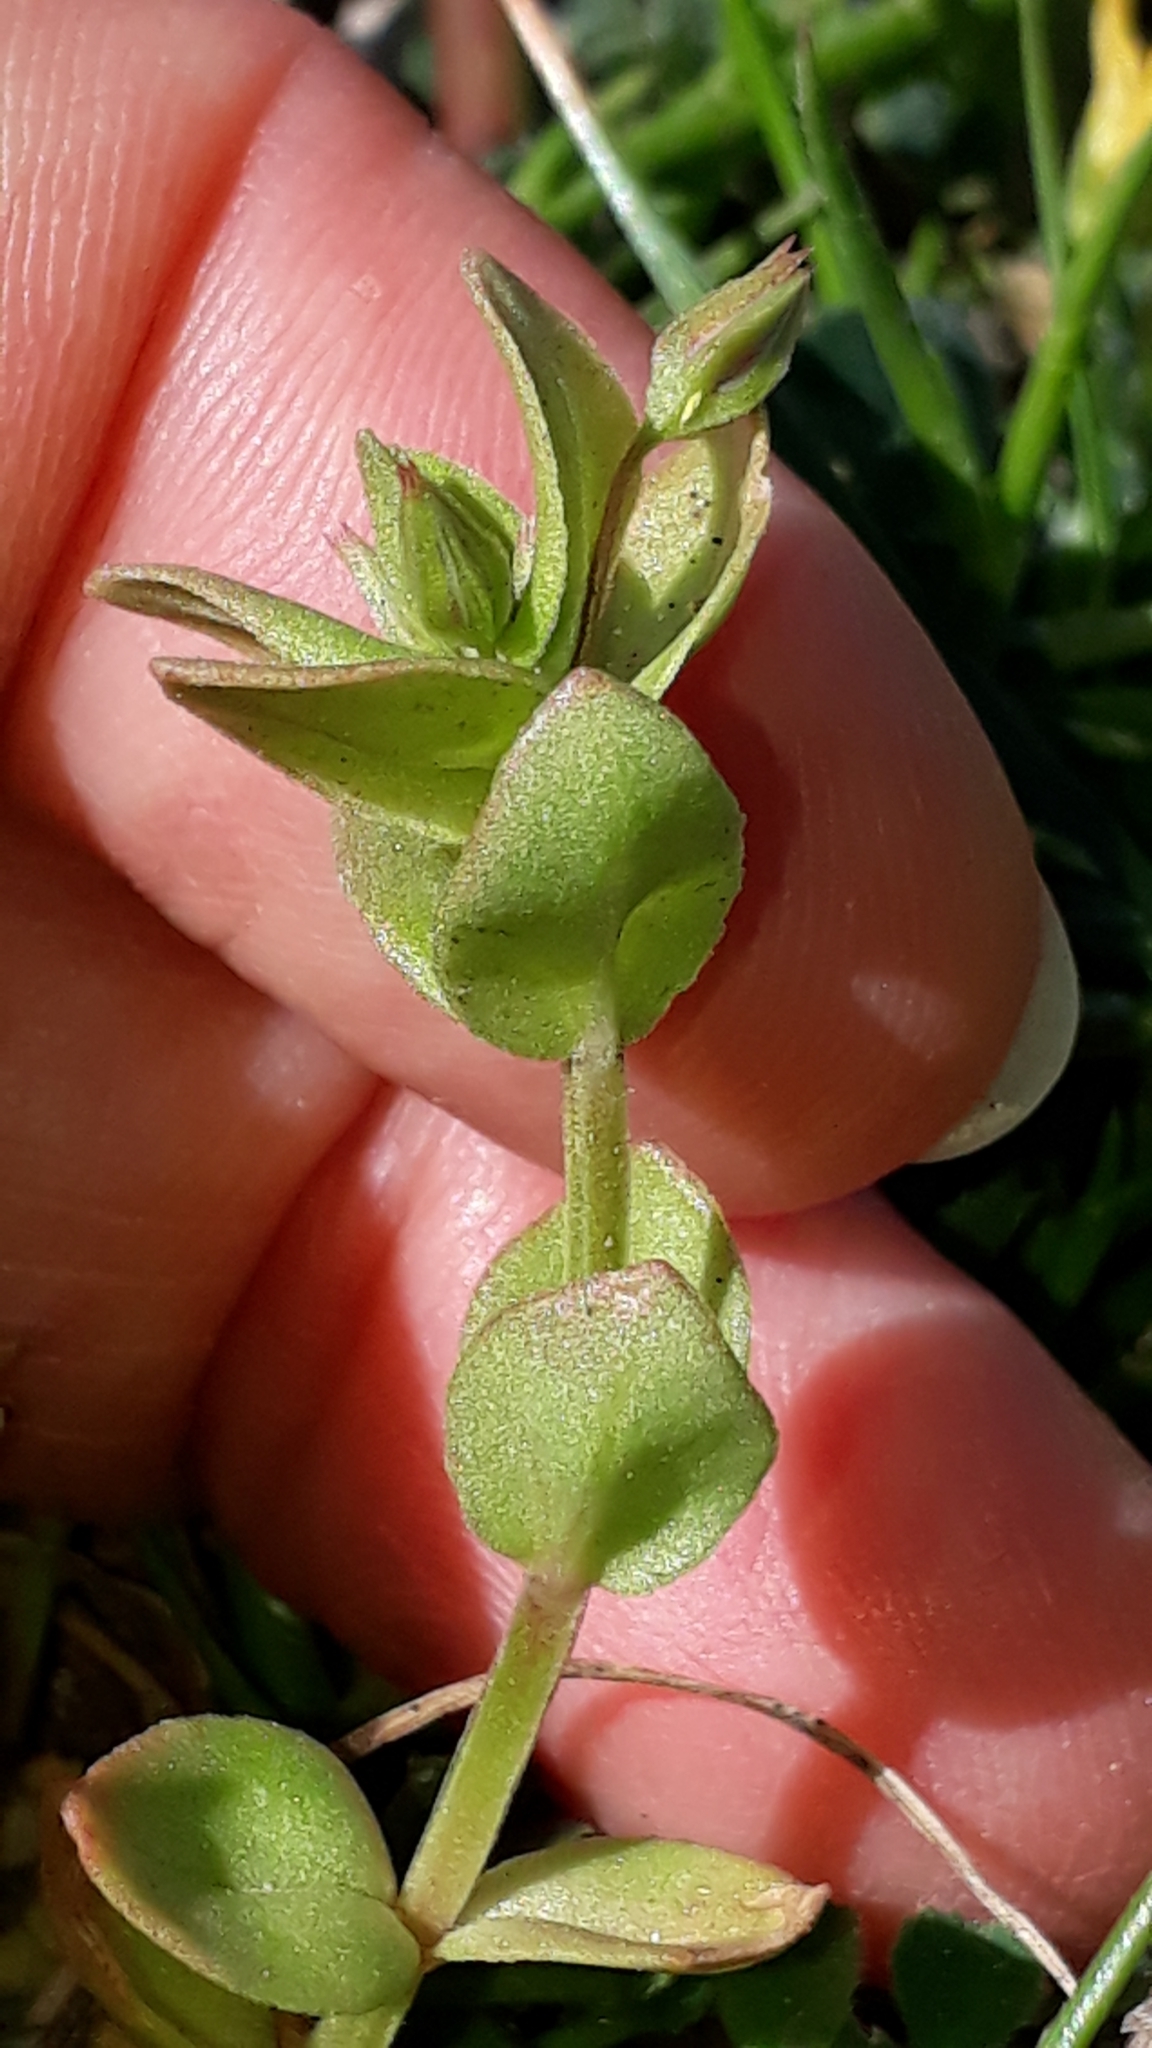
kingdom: Plantae
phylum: Tracheophyta
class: Magnoliopsida
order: Ericales
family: Primulaceae
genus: Lysimachia
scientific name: Lysimachia arvensis
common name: Scarlet pimpernel
